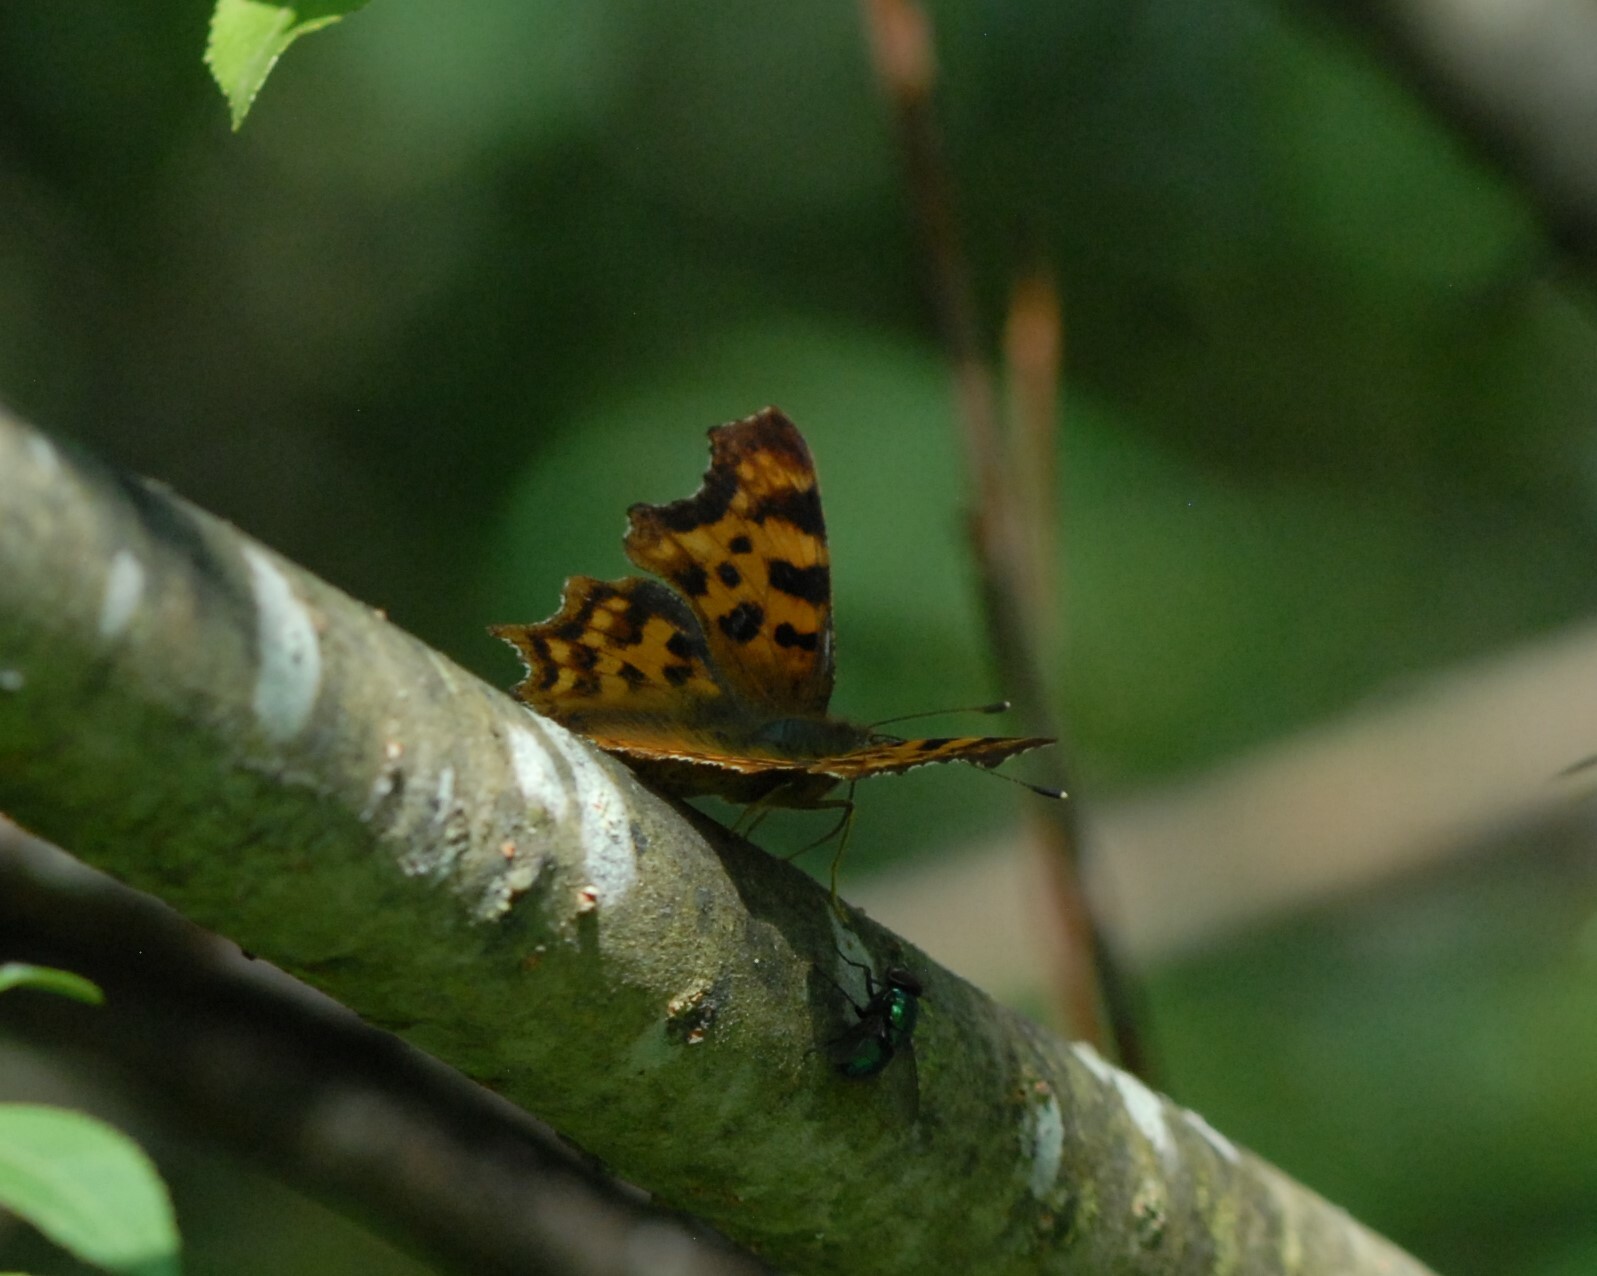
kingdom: Animalia
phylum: Arthropoda
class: Insecta
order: Lepidoptera
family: Nymphalidae
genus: Polygonia
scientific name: Polygonia c-album
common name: Comma
